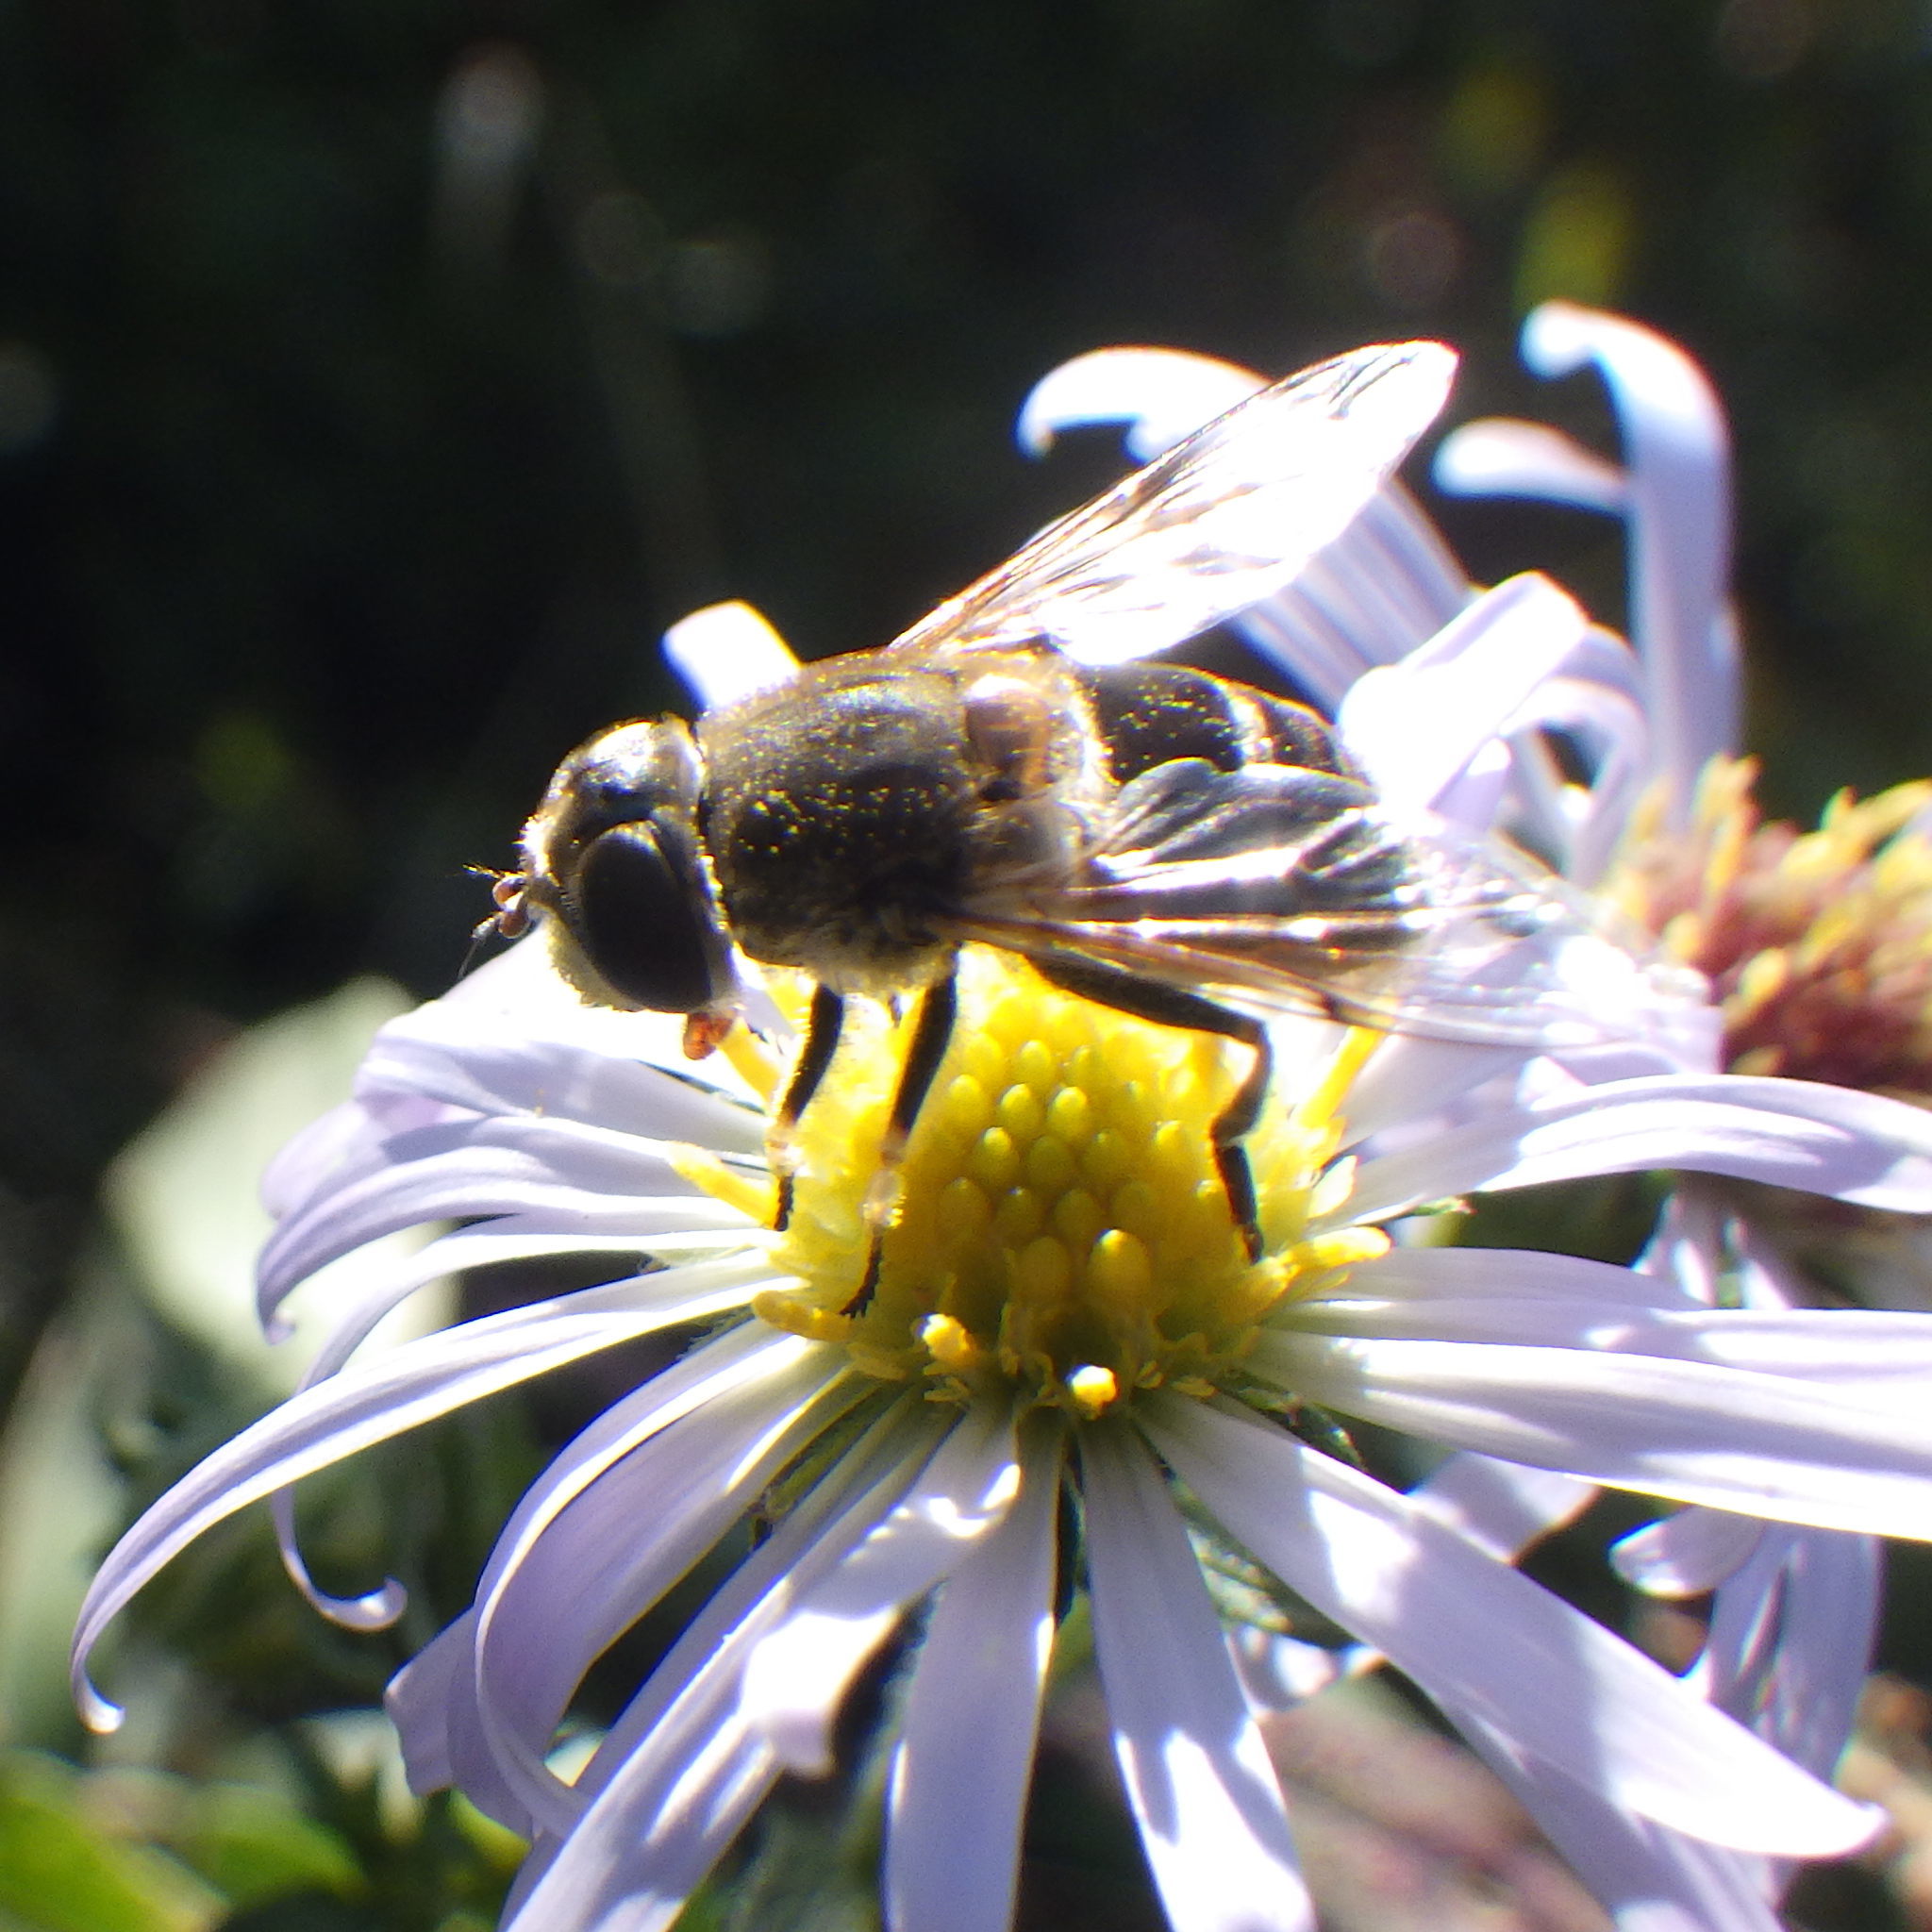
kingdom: Animalia
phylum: Arthropoda
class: Insecta
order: Diptera
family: Syrphidae
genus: Eristalis
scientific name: Eristalis arbustorum
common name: Hover fly
